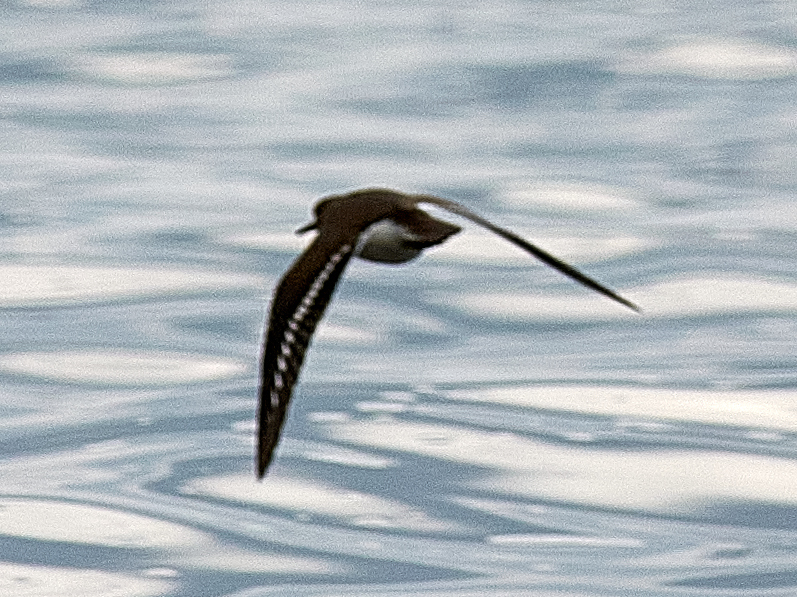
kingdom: Animalia
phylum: Chordata
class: Aves
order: Charadriiformes
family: Scolopacidae
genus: Actitis
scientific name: Actitis hypoleucos
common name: Common sandpiper
